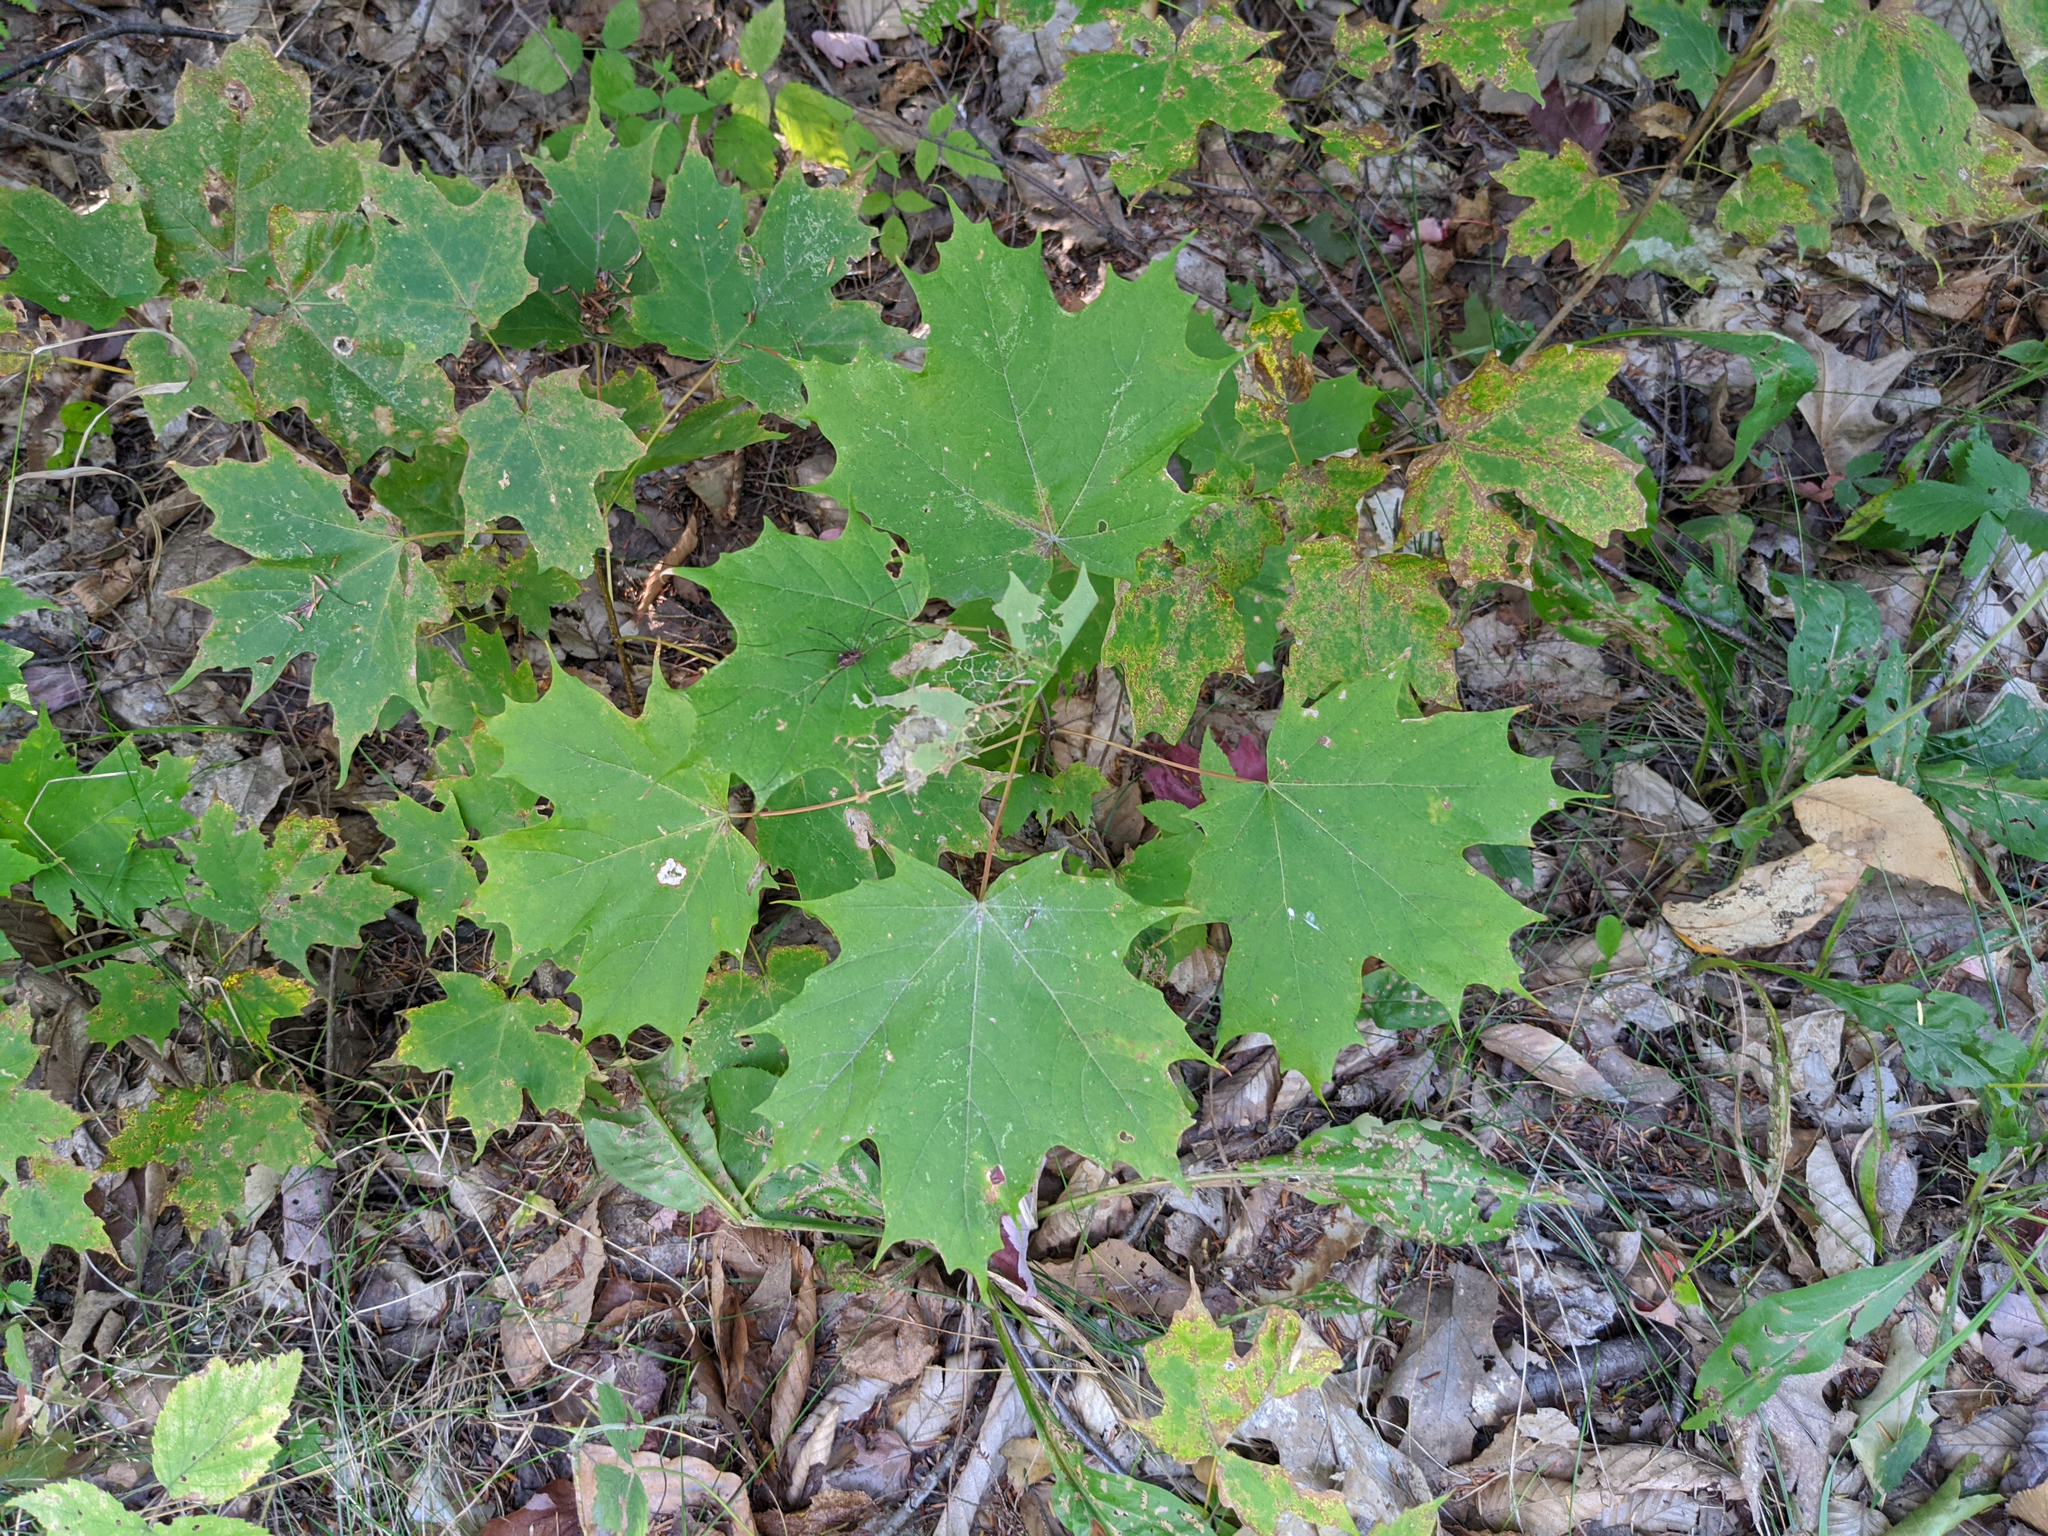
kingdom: Plantae
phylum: Tracheophyta
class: Magnoliopsida
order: Sapindales
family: Sapindaceae
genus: Acer
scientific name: Acer saccharum
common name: Sugar maple
